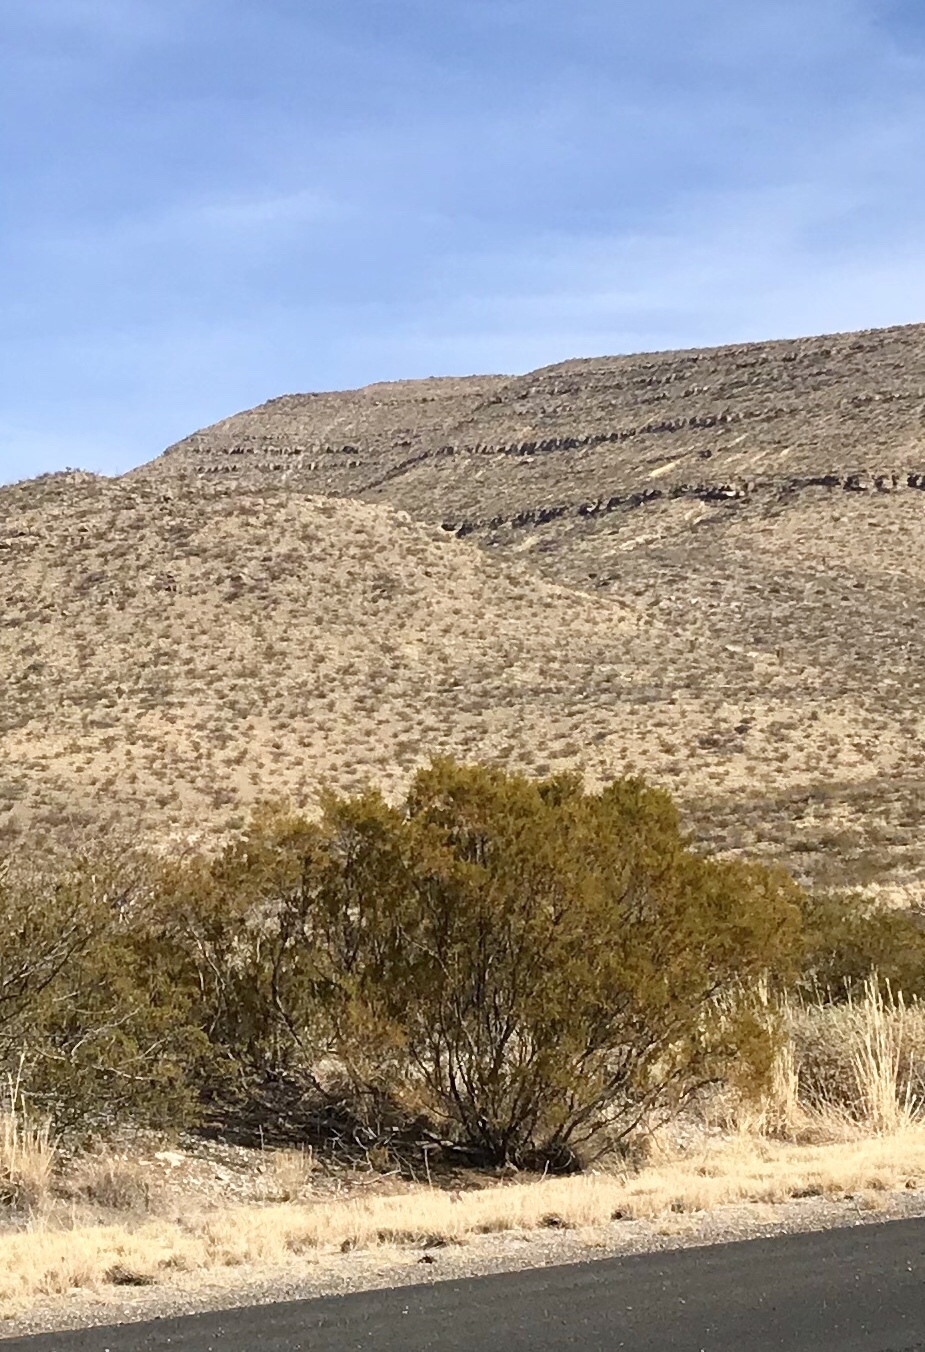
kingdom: Plantae
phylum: Tracheophyta
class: Magnoliopsida
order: Zygophyllales
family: Zygophyllaceae
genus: Larrea
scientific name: Larrea tridentata
